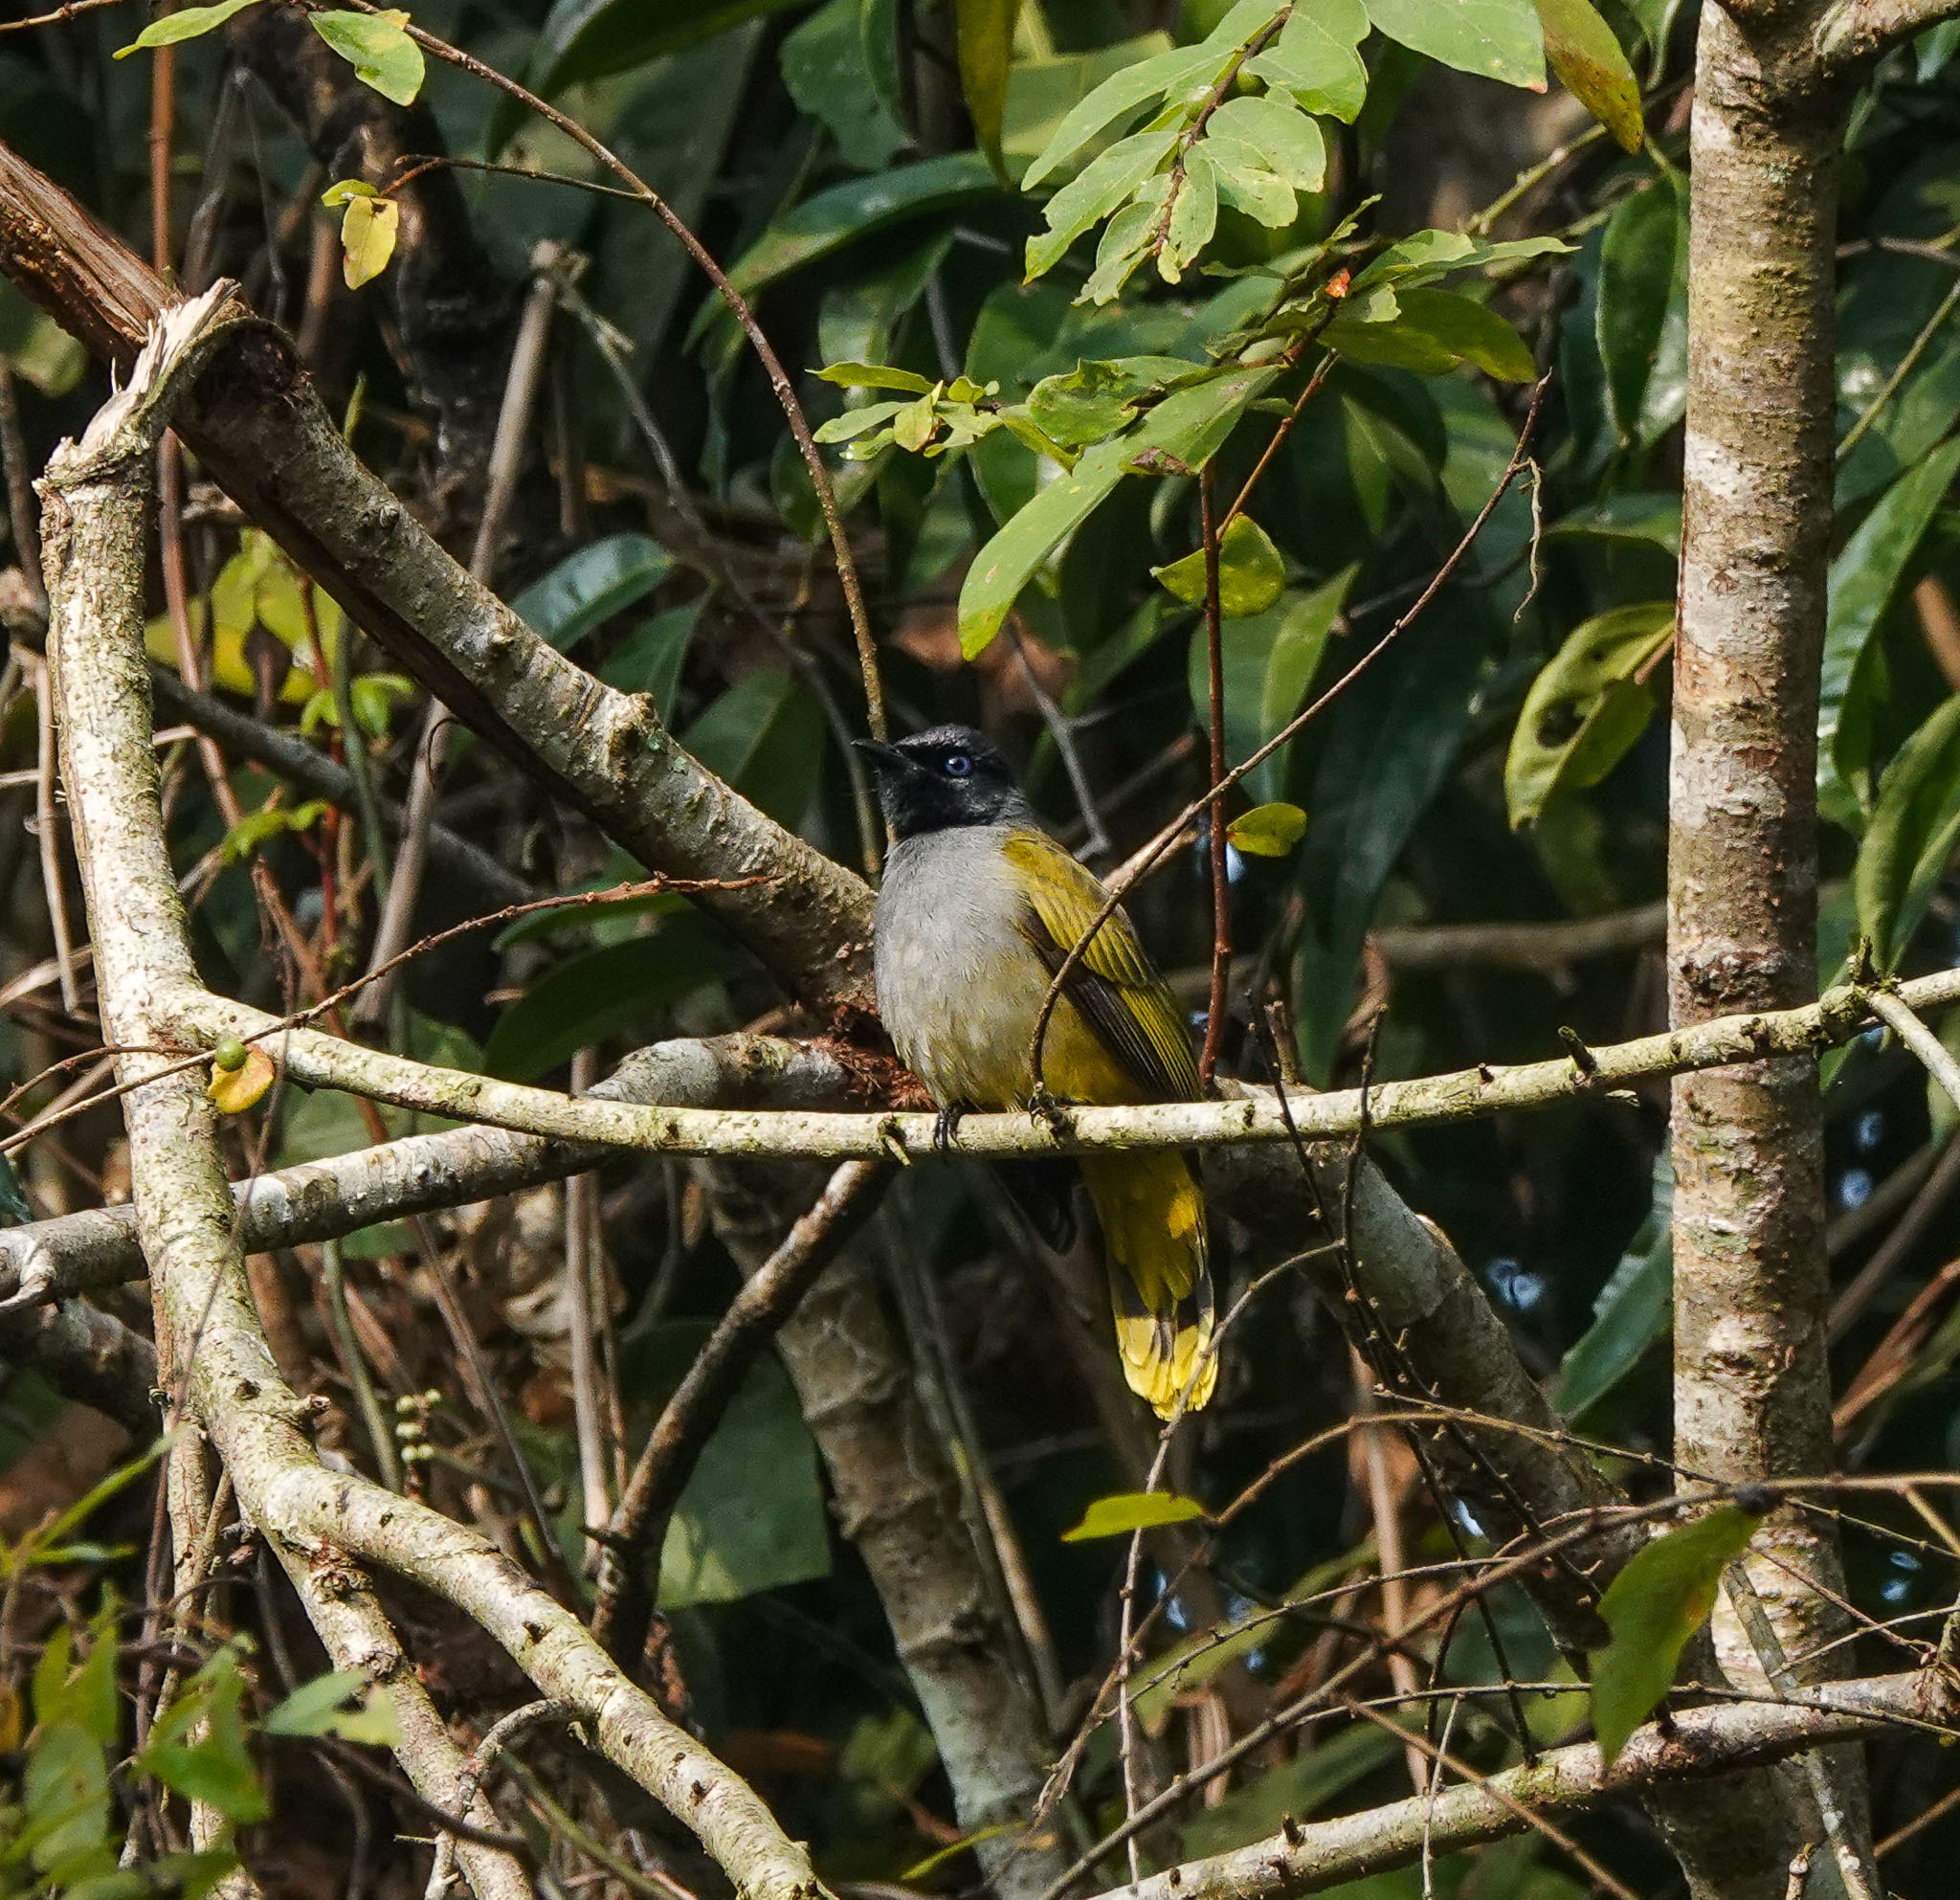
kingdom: Animalia
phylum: Chordata
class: Aves
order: Passeriformes
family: Pycnonotidae
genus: Microtarsus
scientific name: Microtarsus
